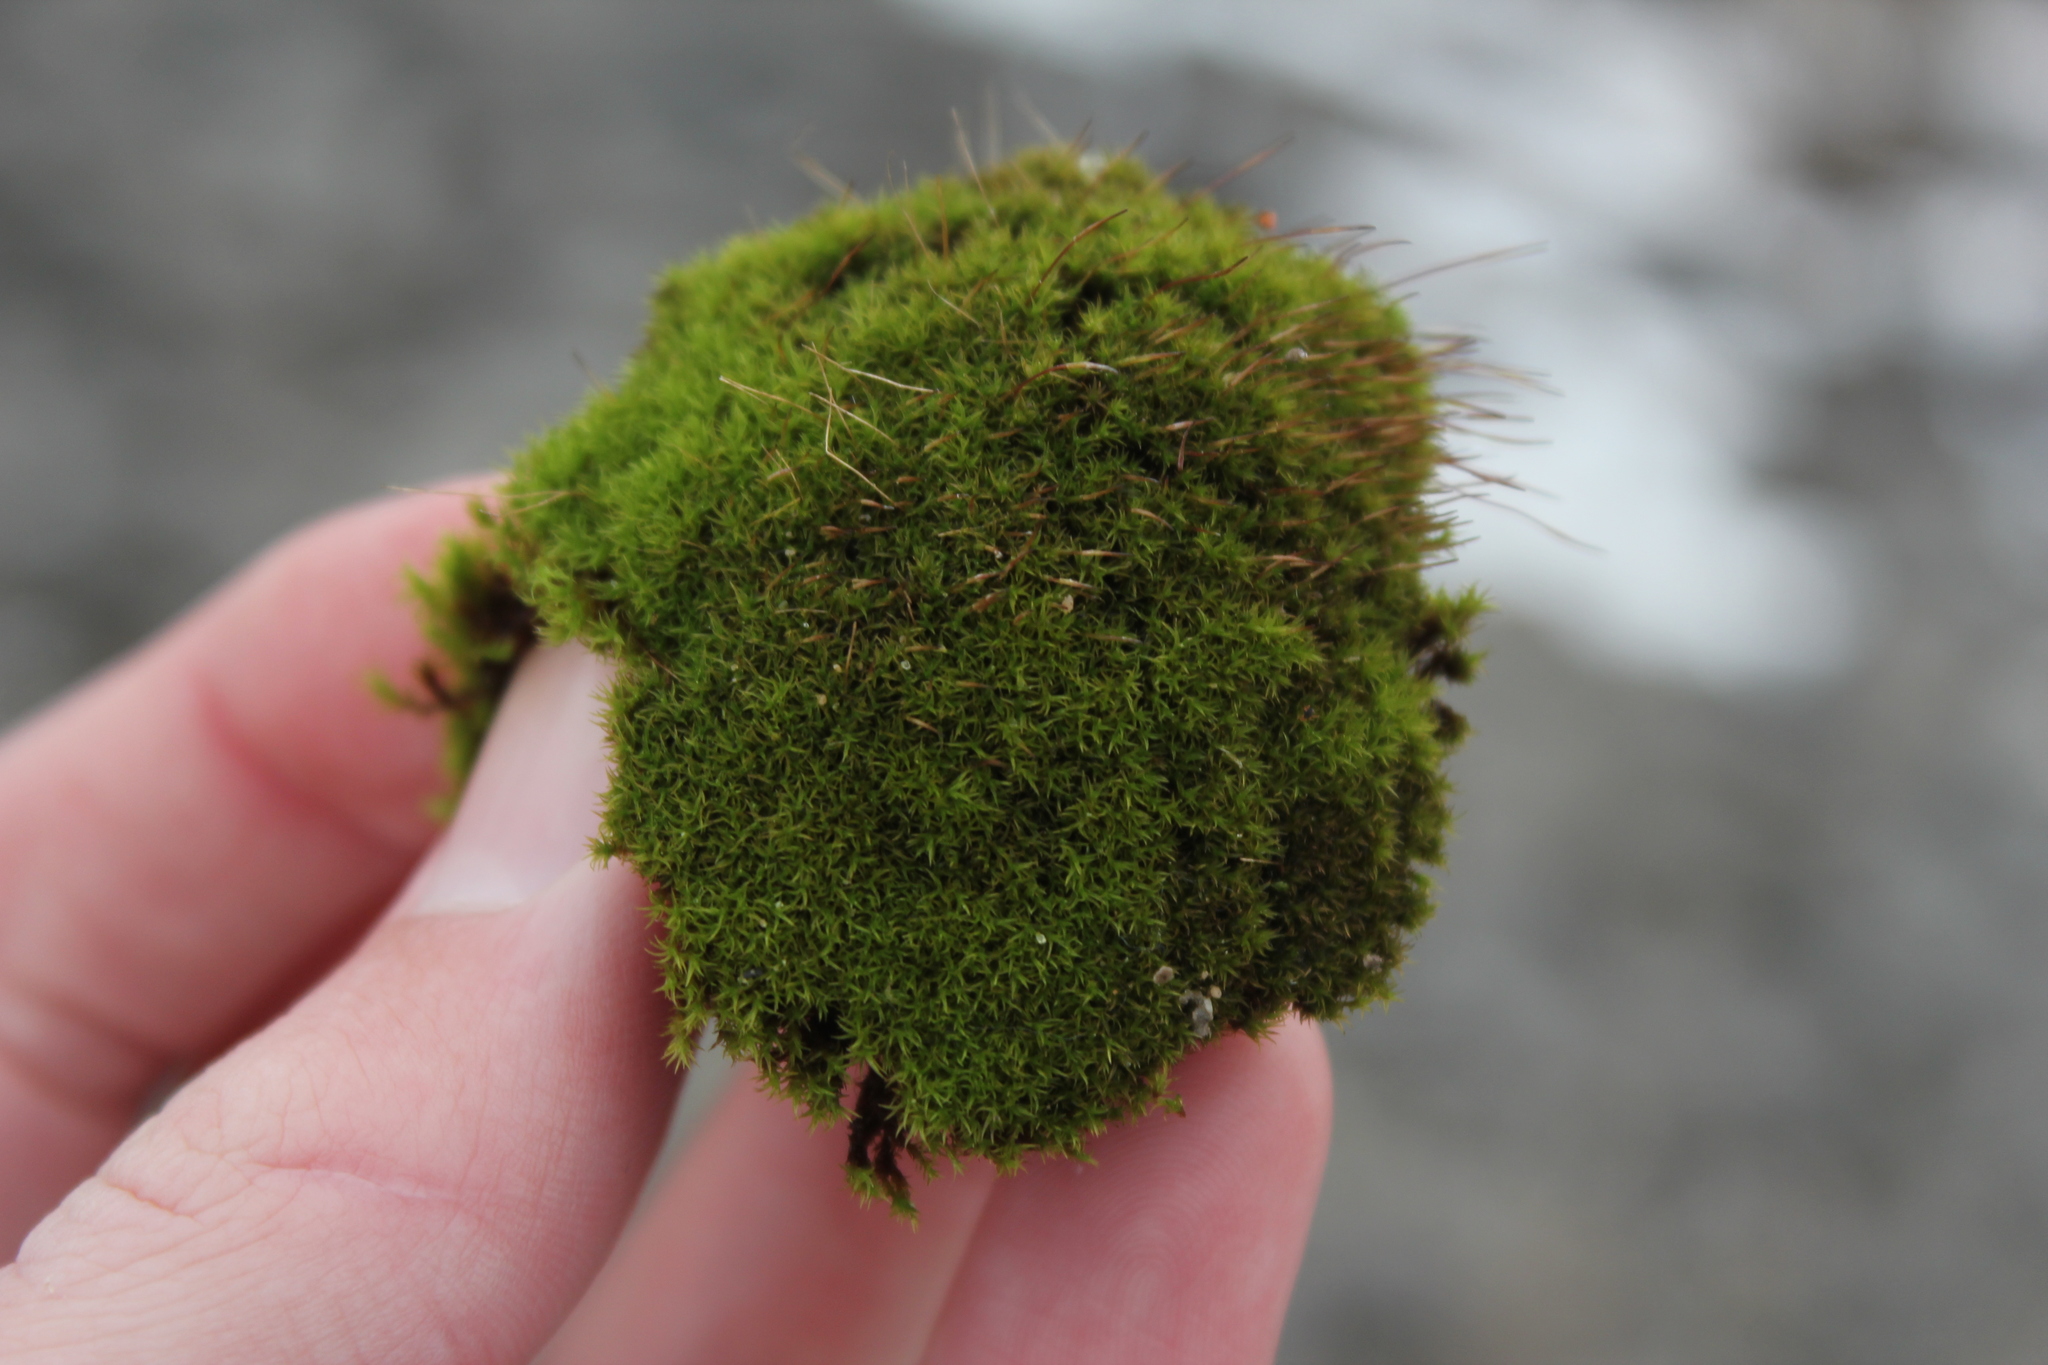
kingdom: Plantae
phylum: Bryophyta
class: Bryopsida
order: Dicranales
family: Ditrichaceae
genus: Ceratodon
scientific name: Ceratodon purpureus
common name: Redshank
